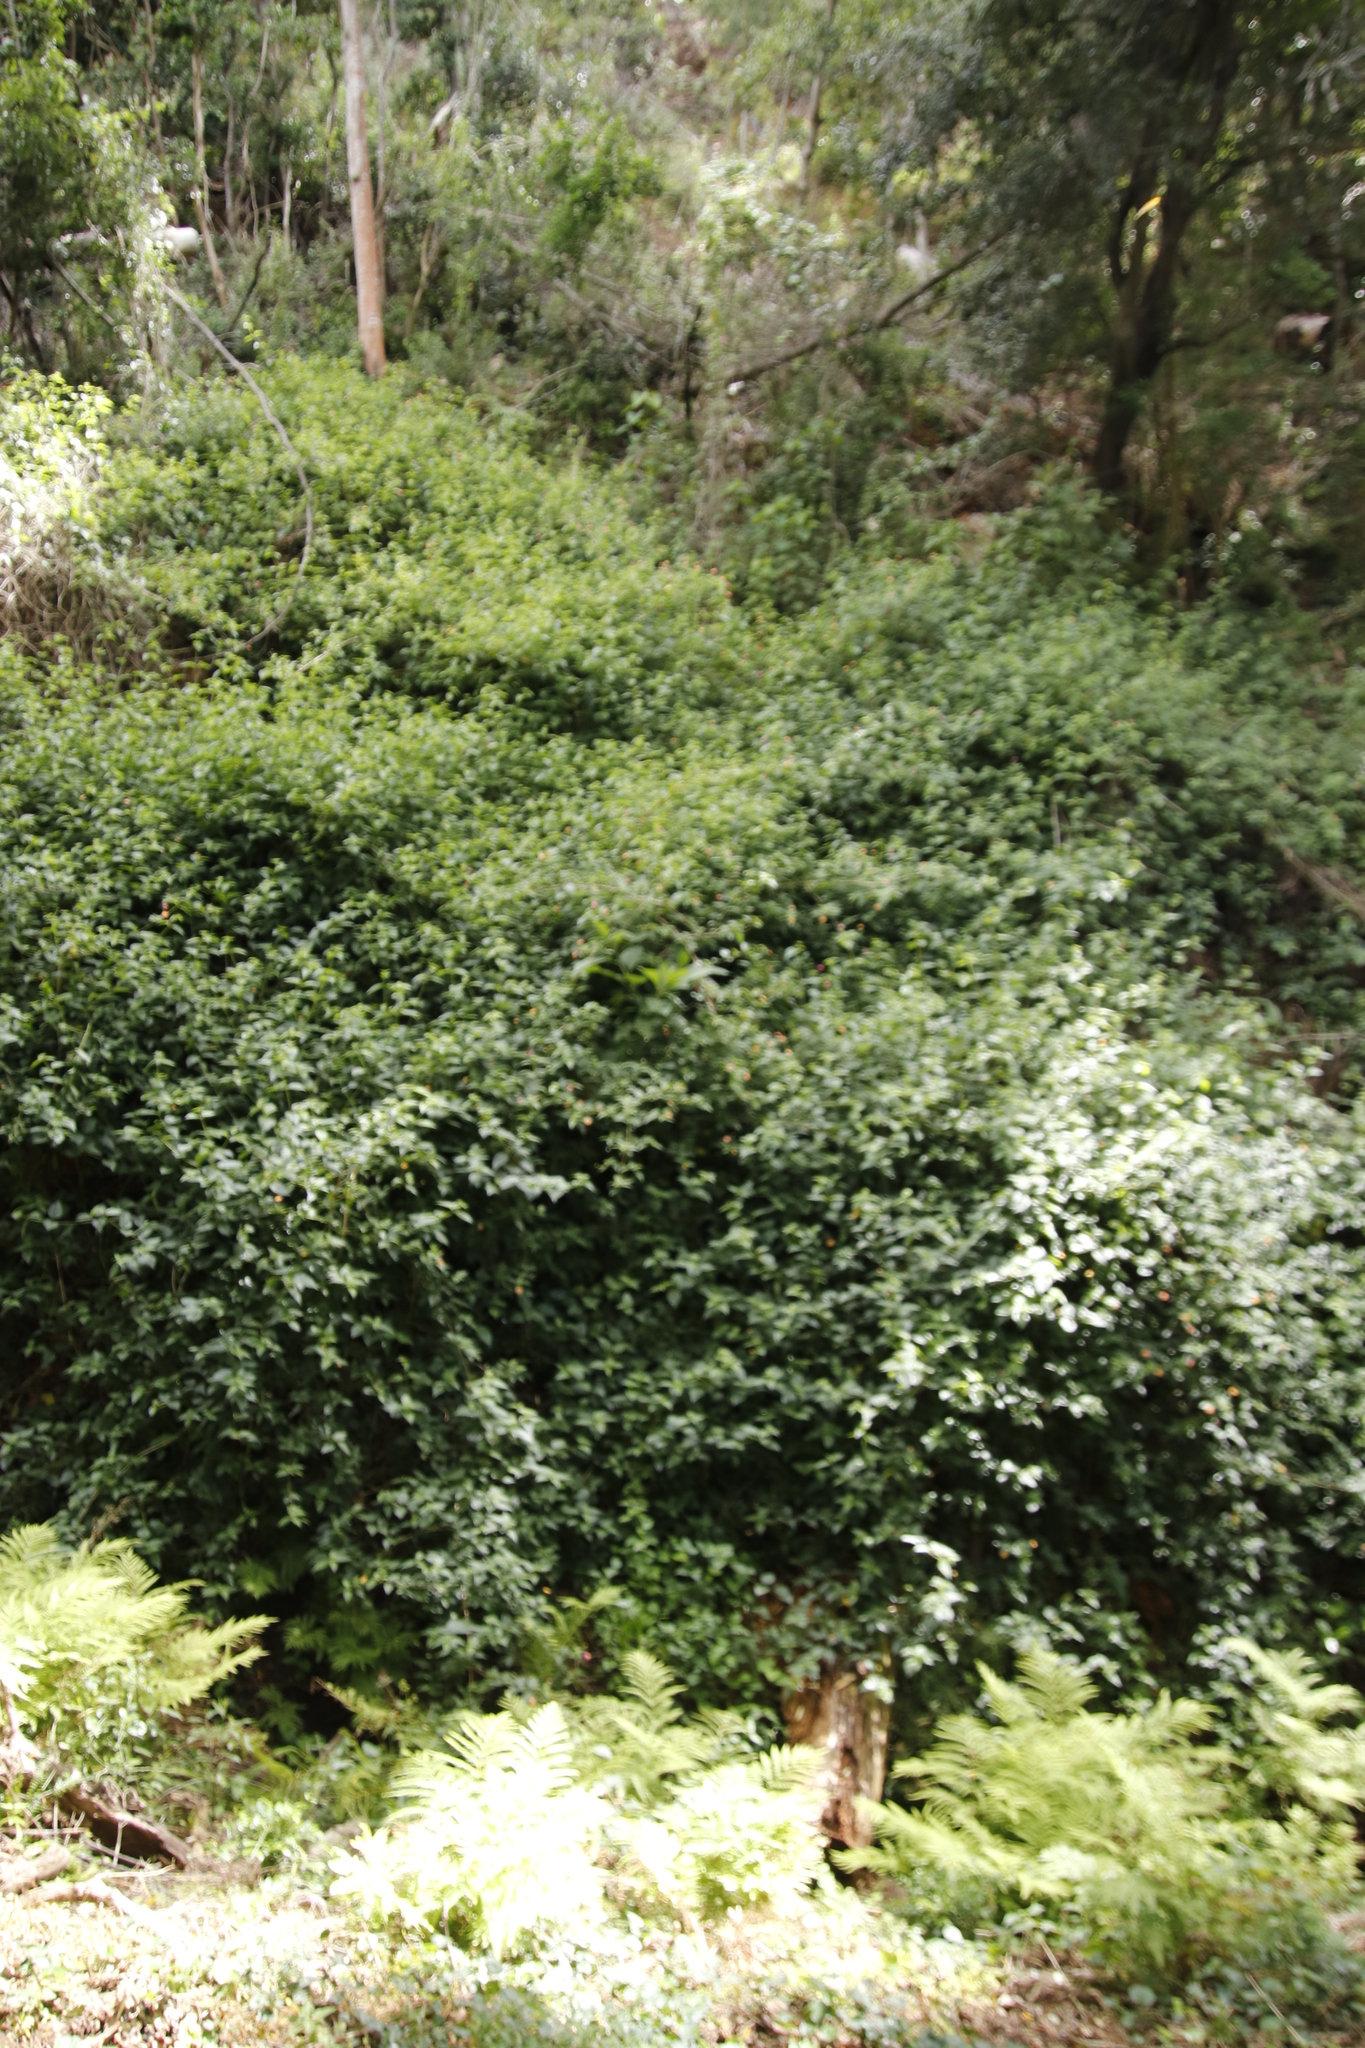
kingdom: Plantae
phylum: Tracheophyta
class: Magnoliopsida
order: Lamiales
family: Verbenaceae
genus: Lantana
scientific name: Lantana camara
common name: Lantana
